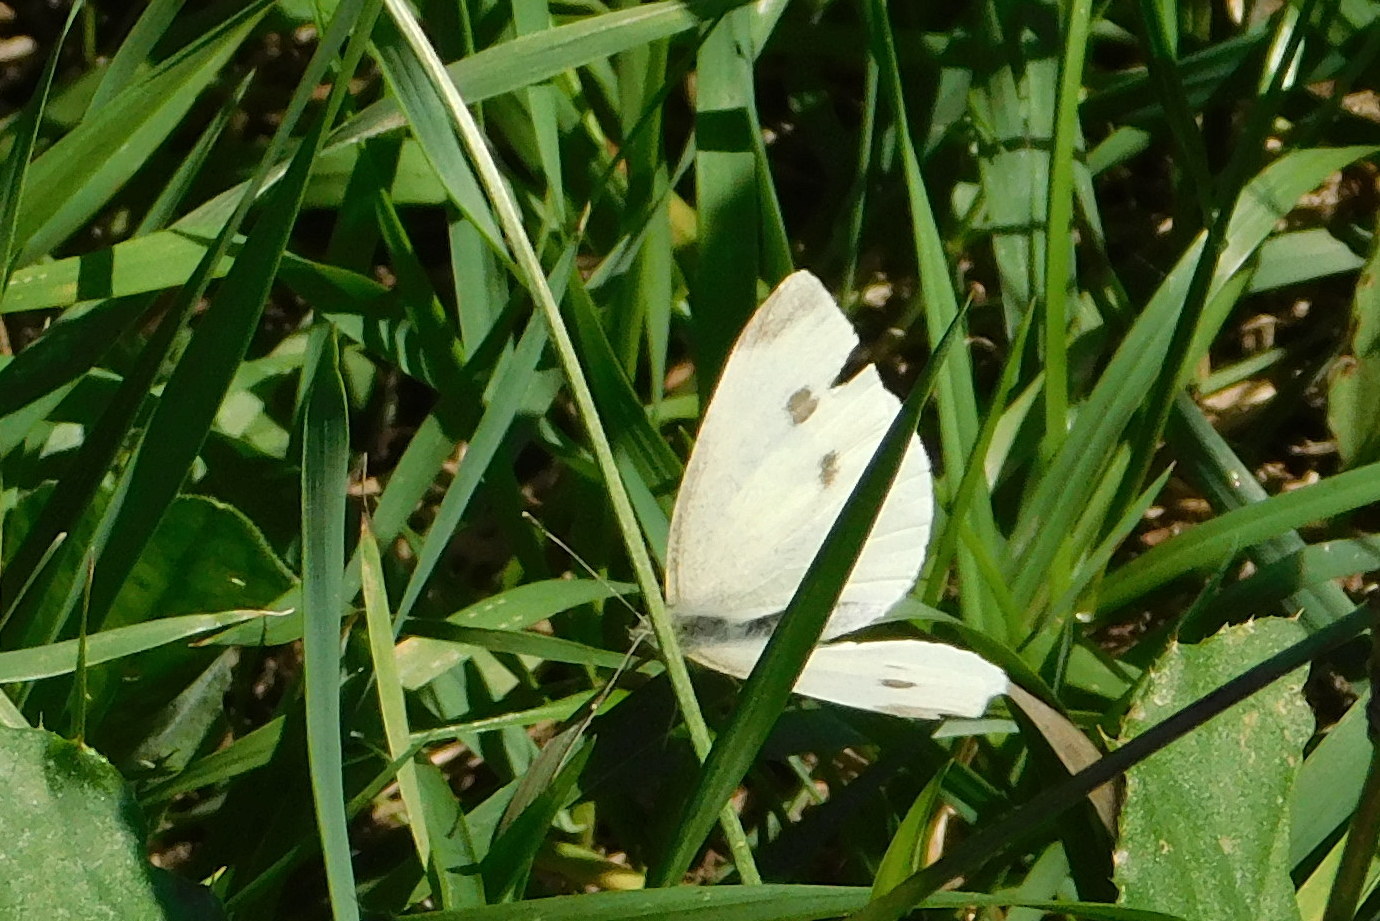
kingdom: Animalia
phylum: Arthropoda
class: Insecta
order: Lepidoptera
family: Pieridae
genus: Pieris
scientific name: Pieris rapae
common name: Small white
